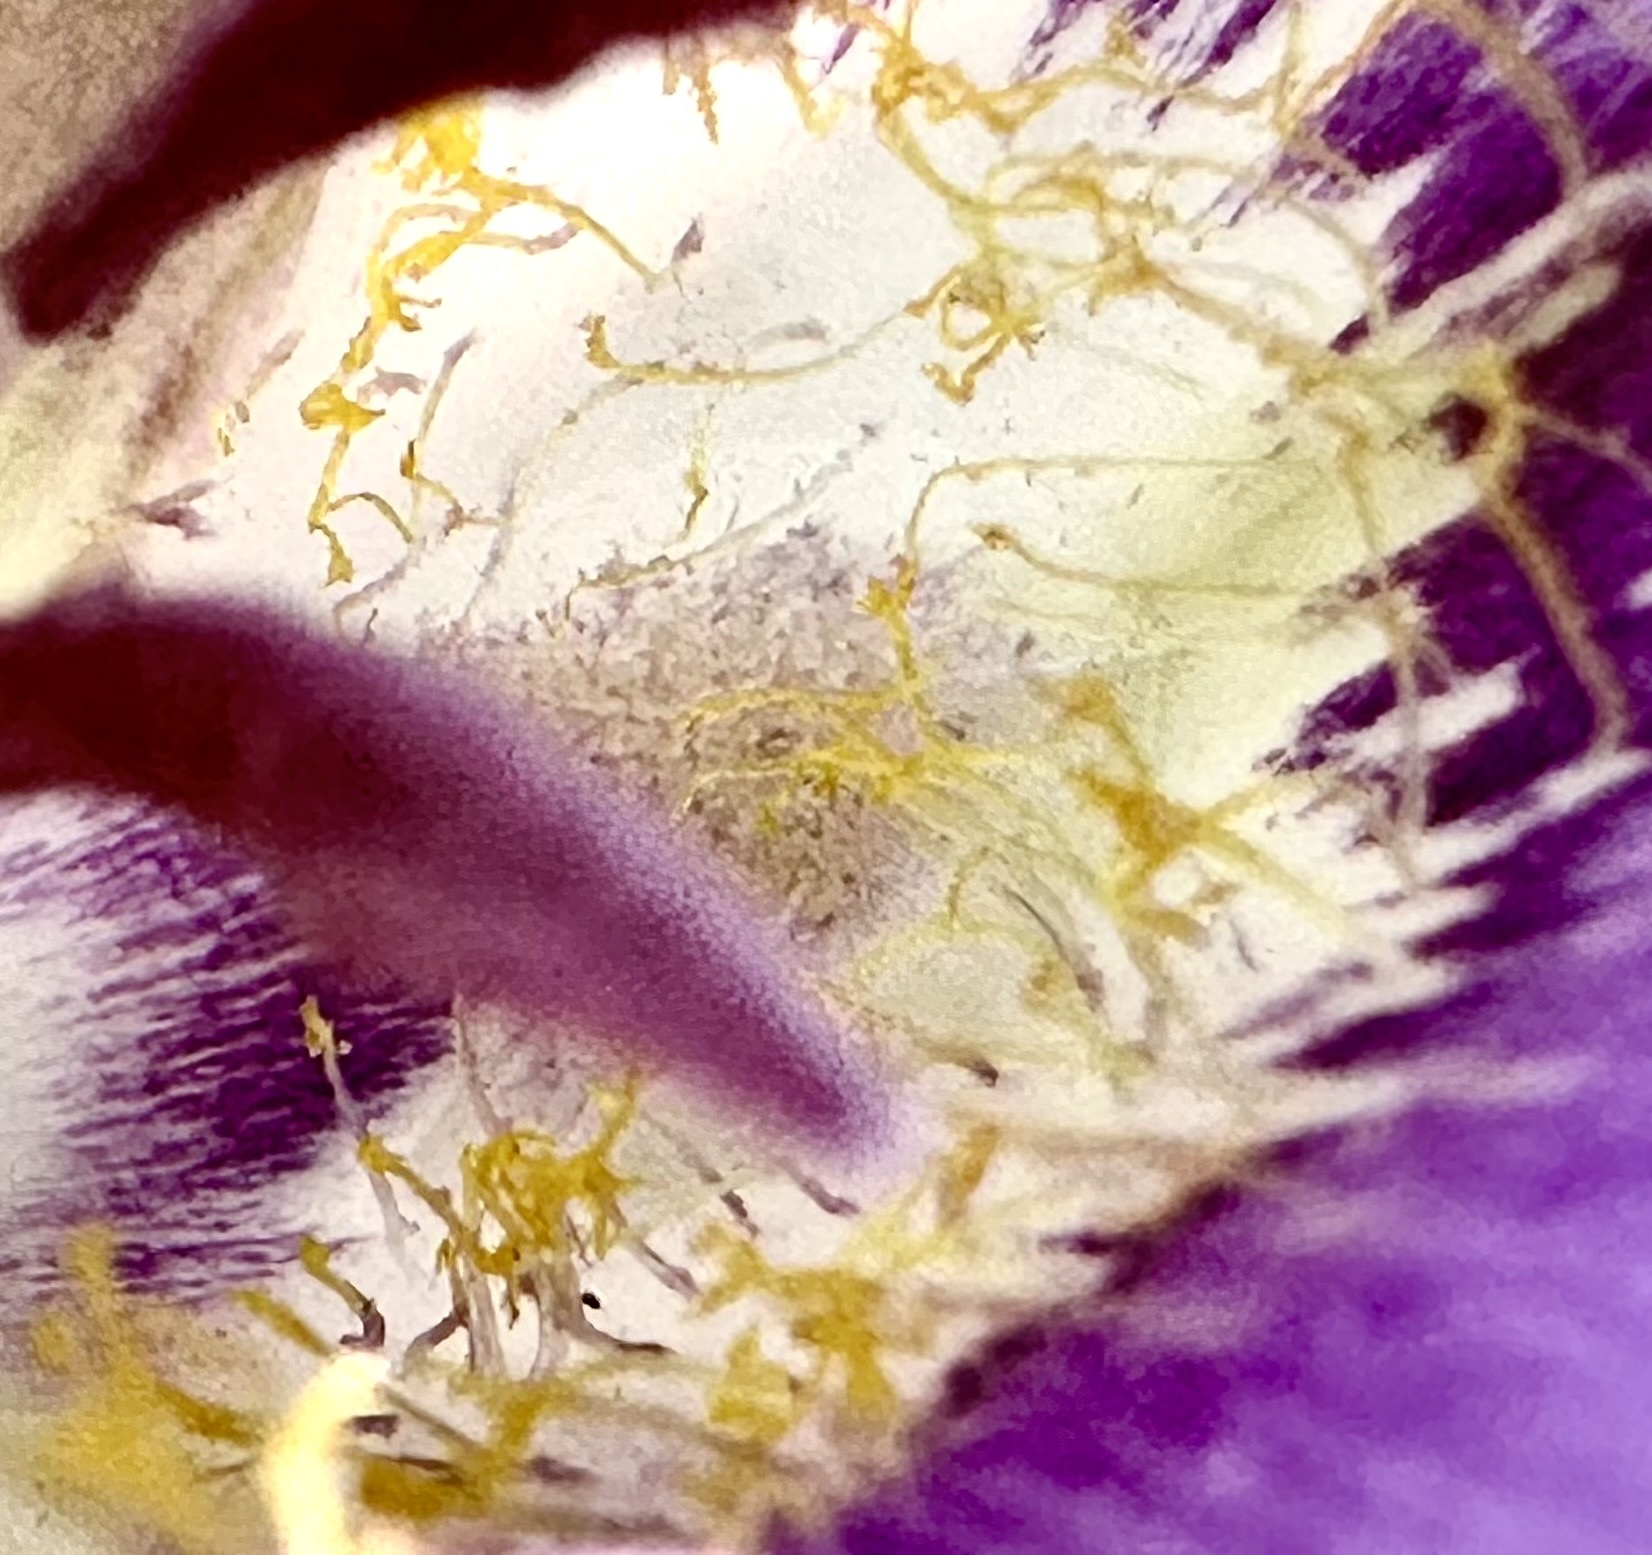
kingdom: Plantae
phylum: Tracheophyta
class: Liliopsida
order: Liliales
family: Liliaceae
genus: Calochortus
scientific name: Calochortus macrocarpus
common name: Green-band mariposa lily
